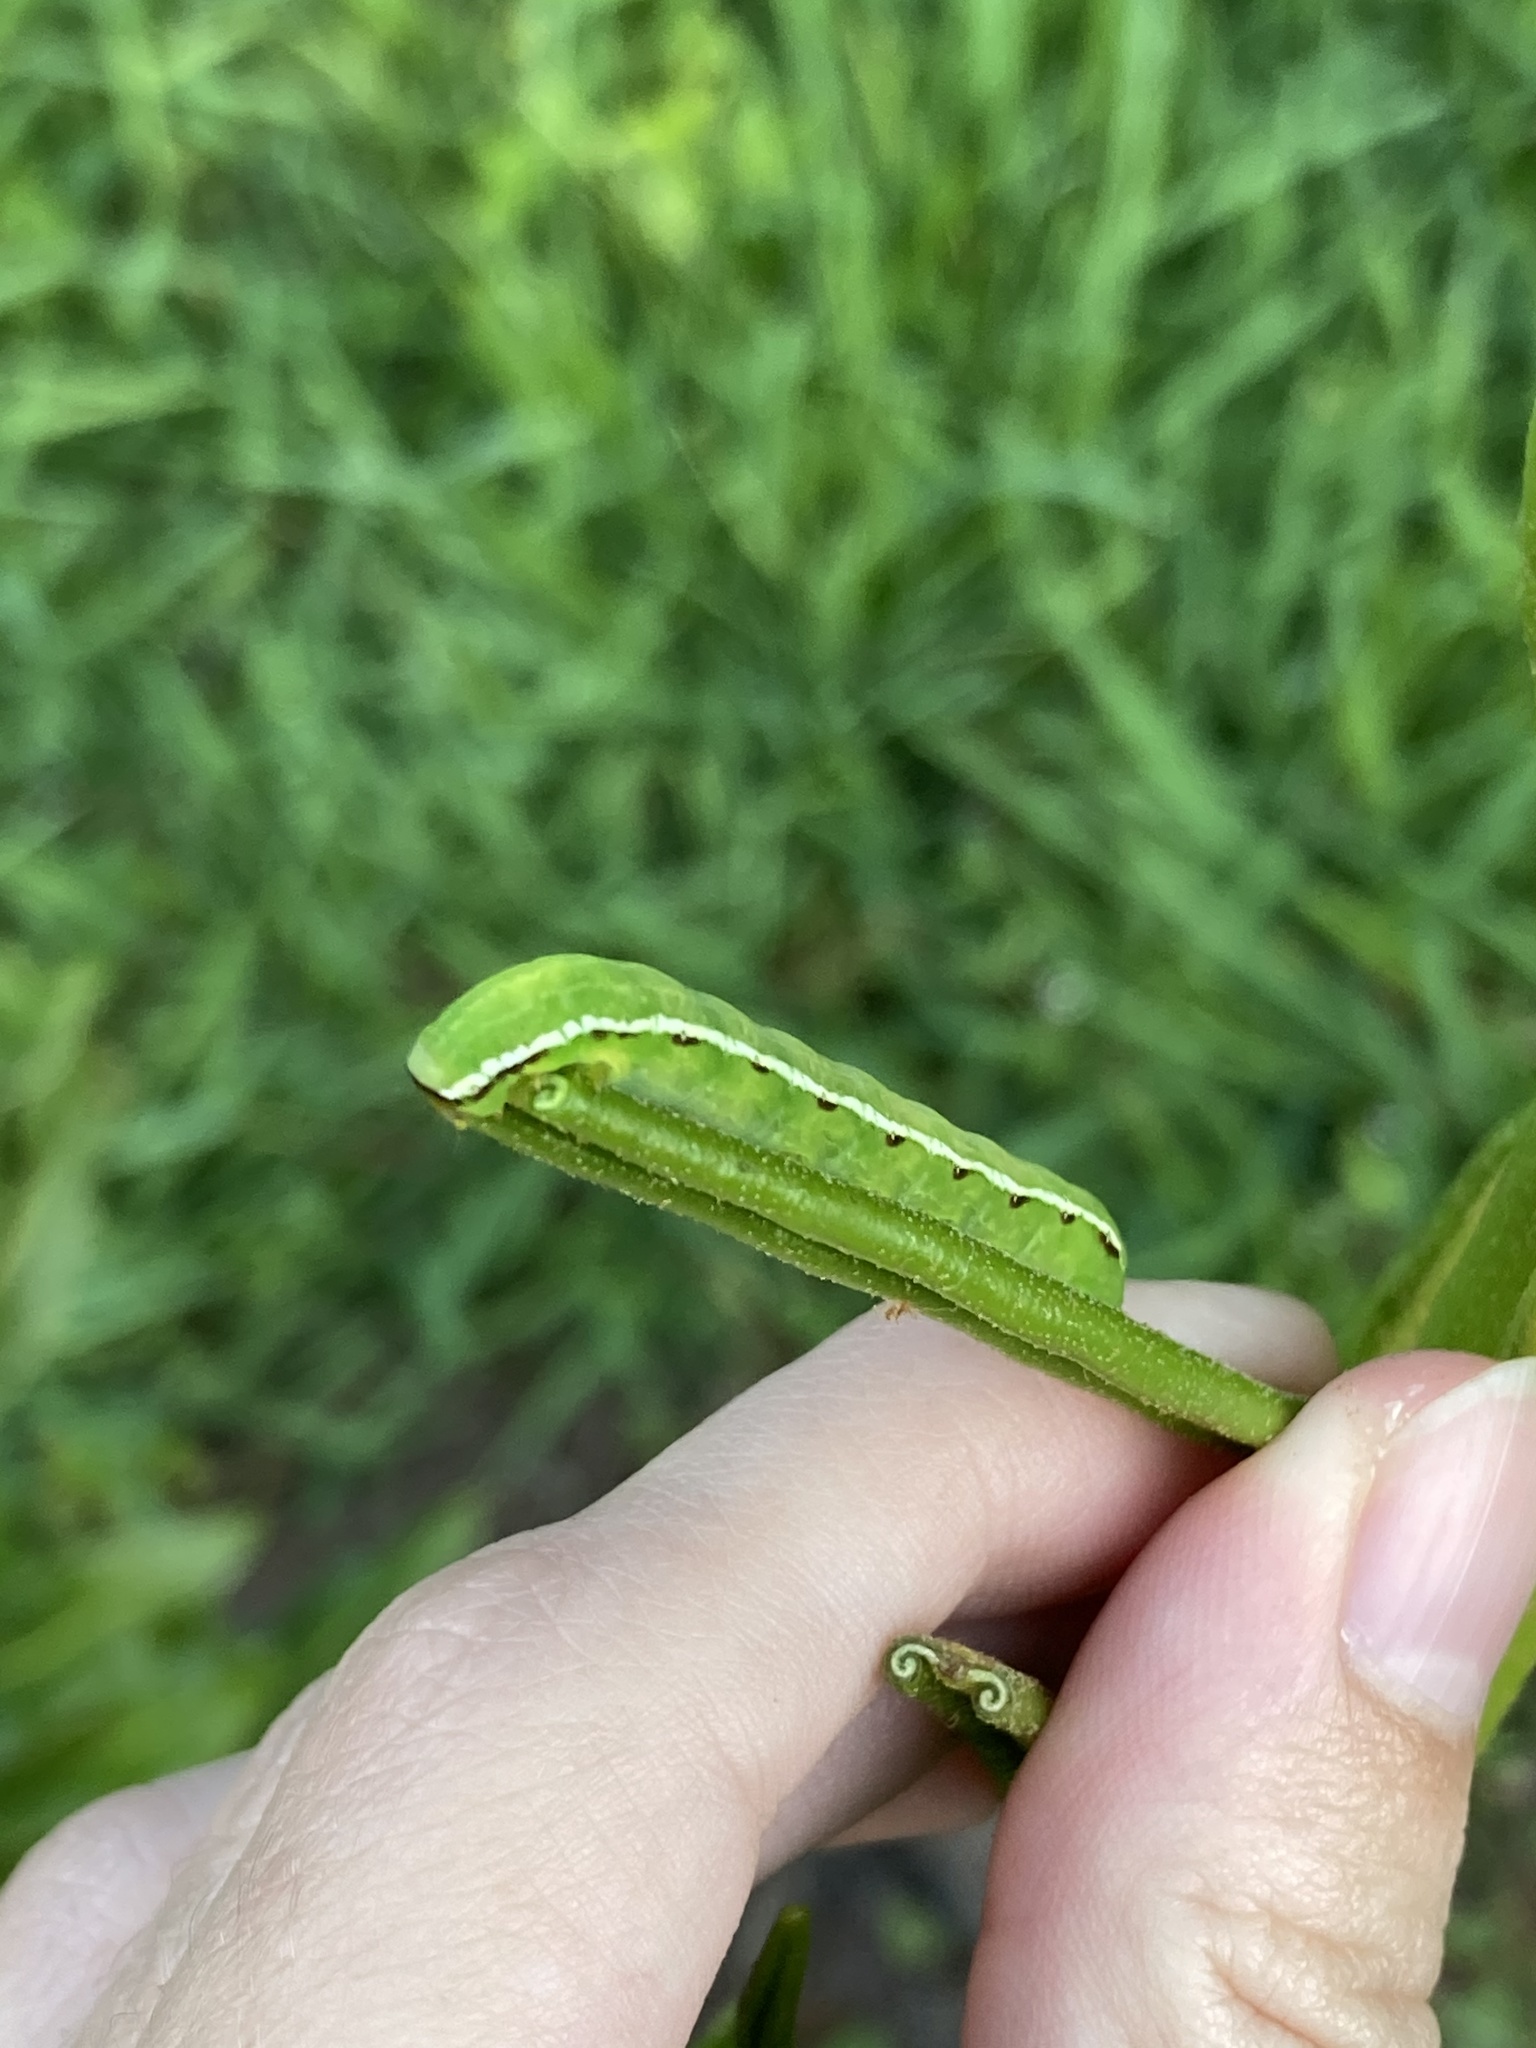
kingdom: Animalia
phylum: Arthropoda
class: Insecta
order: Lepidoptera
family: Noctuidae
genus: Callopistria
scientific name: Callopistria floridensis
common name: Florida fern moth
